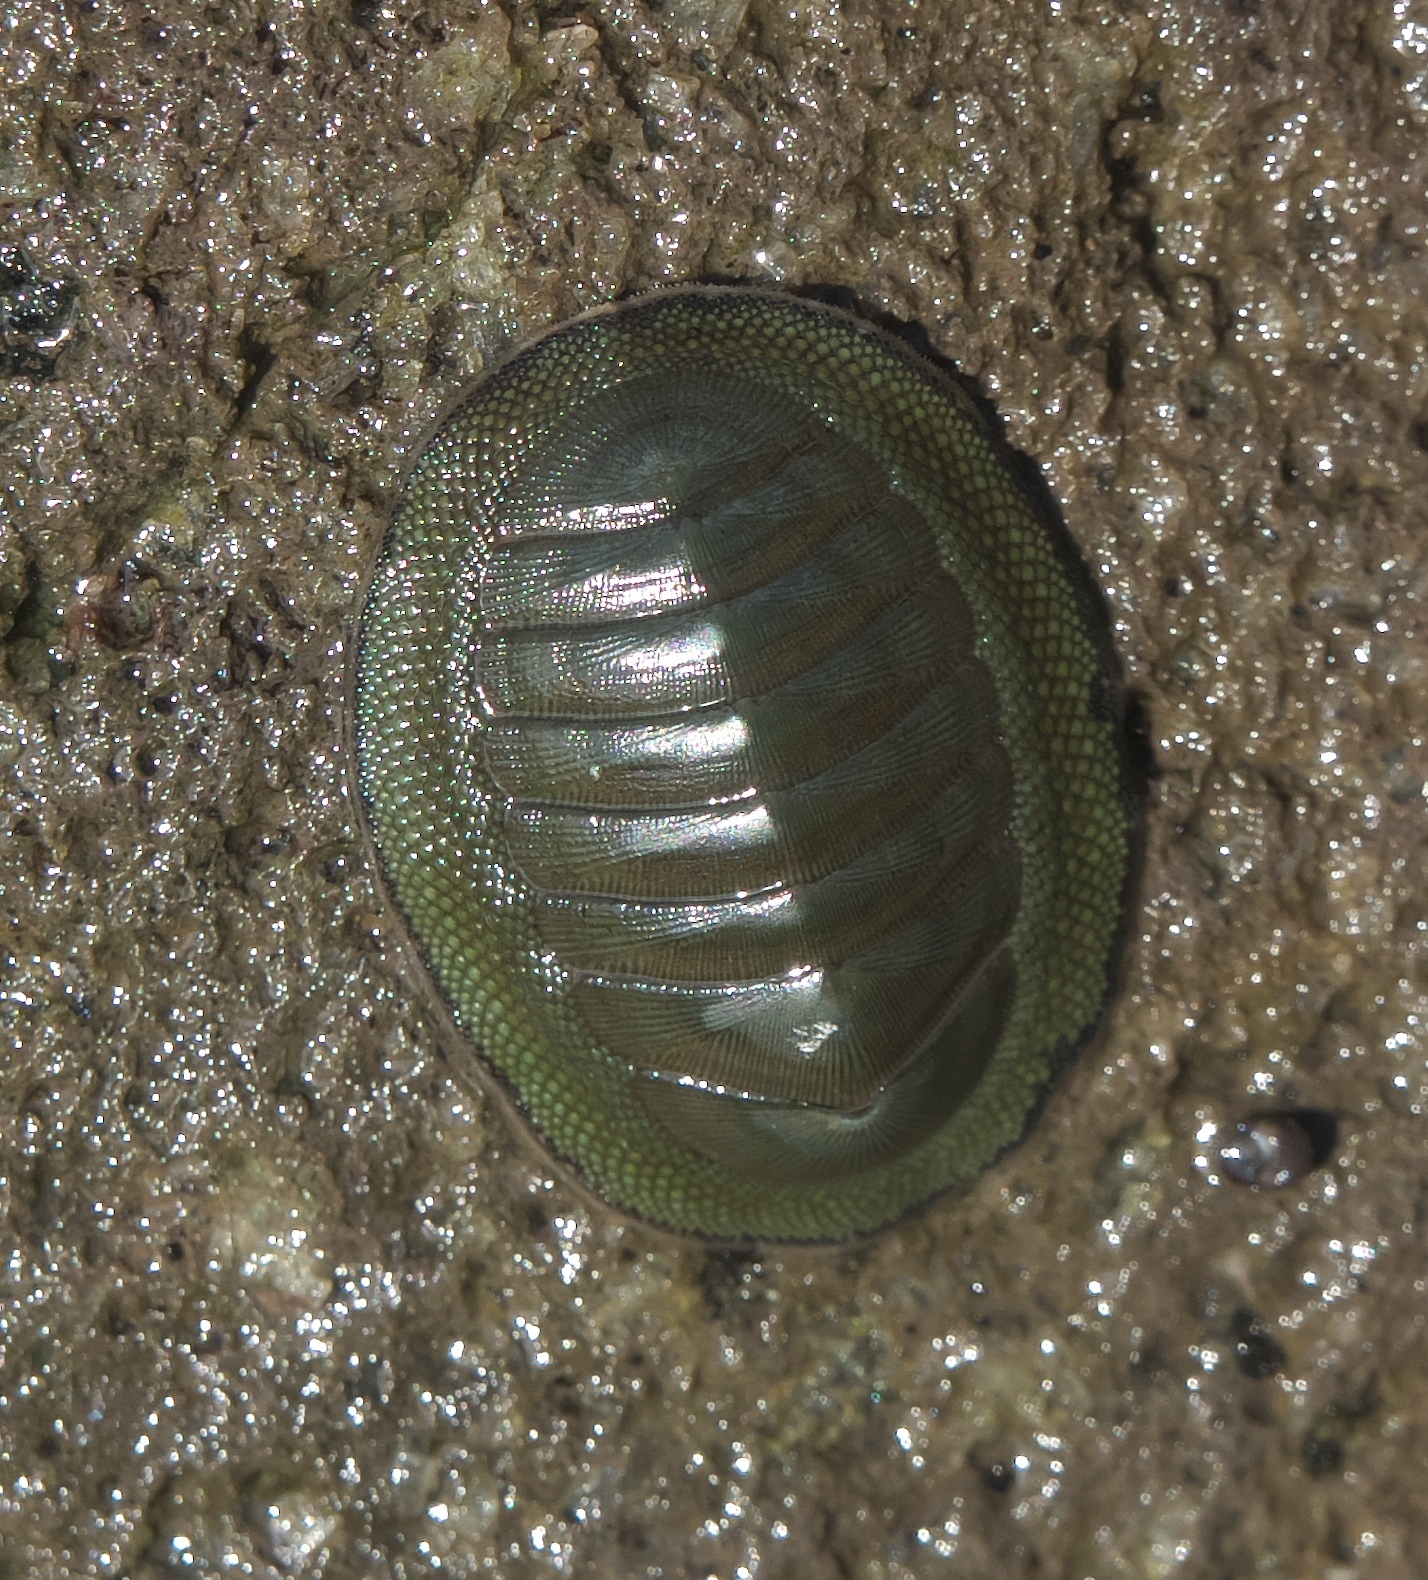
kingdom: Animalia
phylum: Mollusca
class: Polyplacophora
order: Chitonida
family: Chitonidae
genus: Chiton
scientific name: Chiton glaucus
